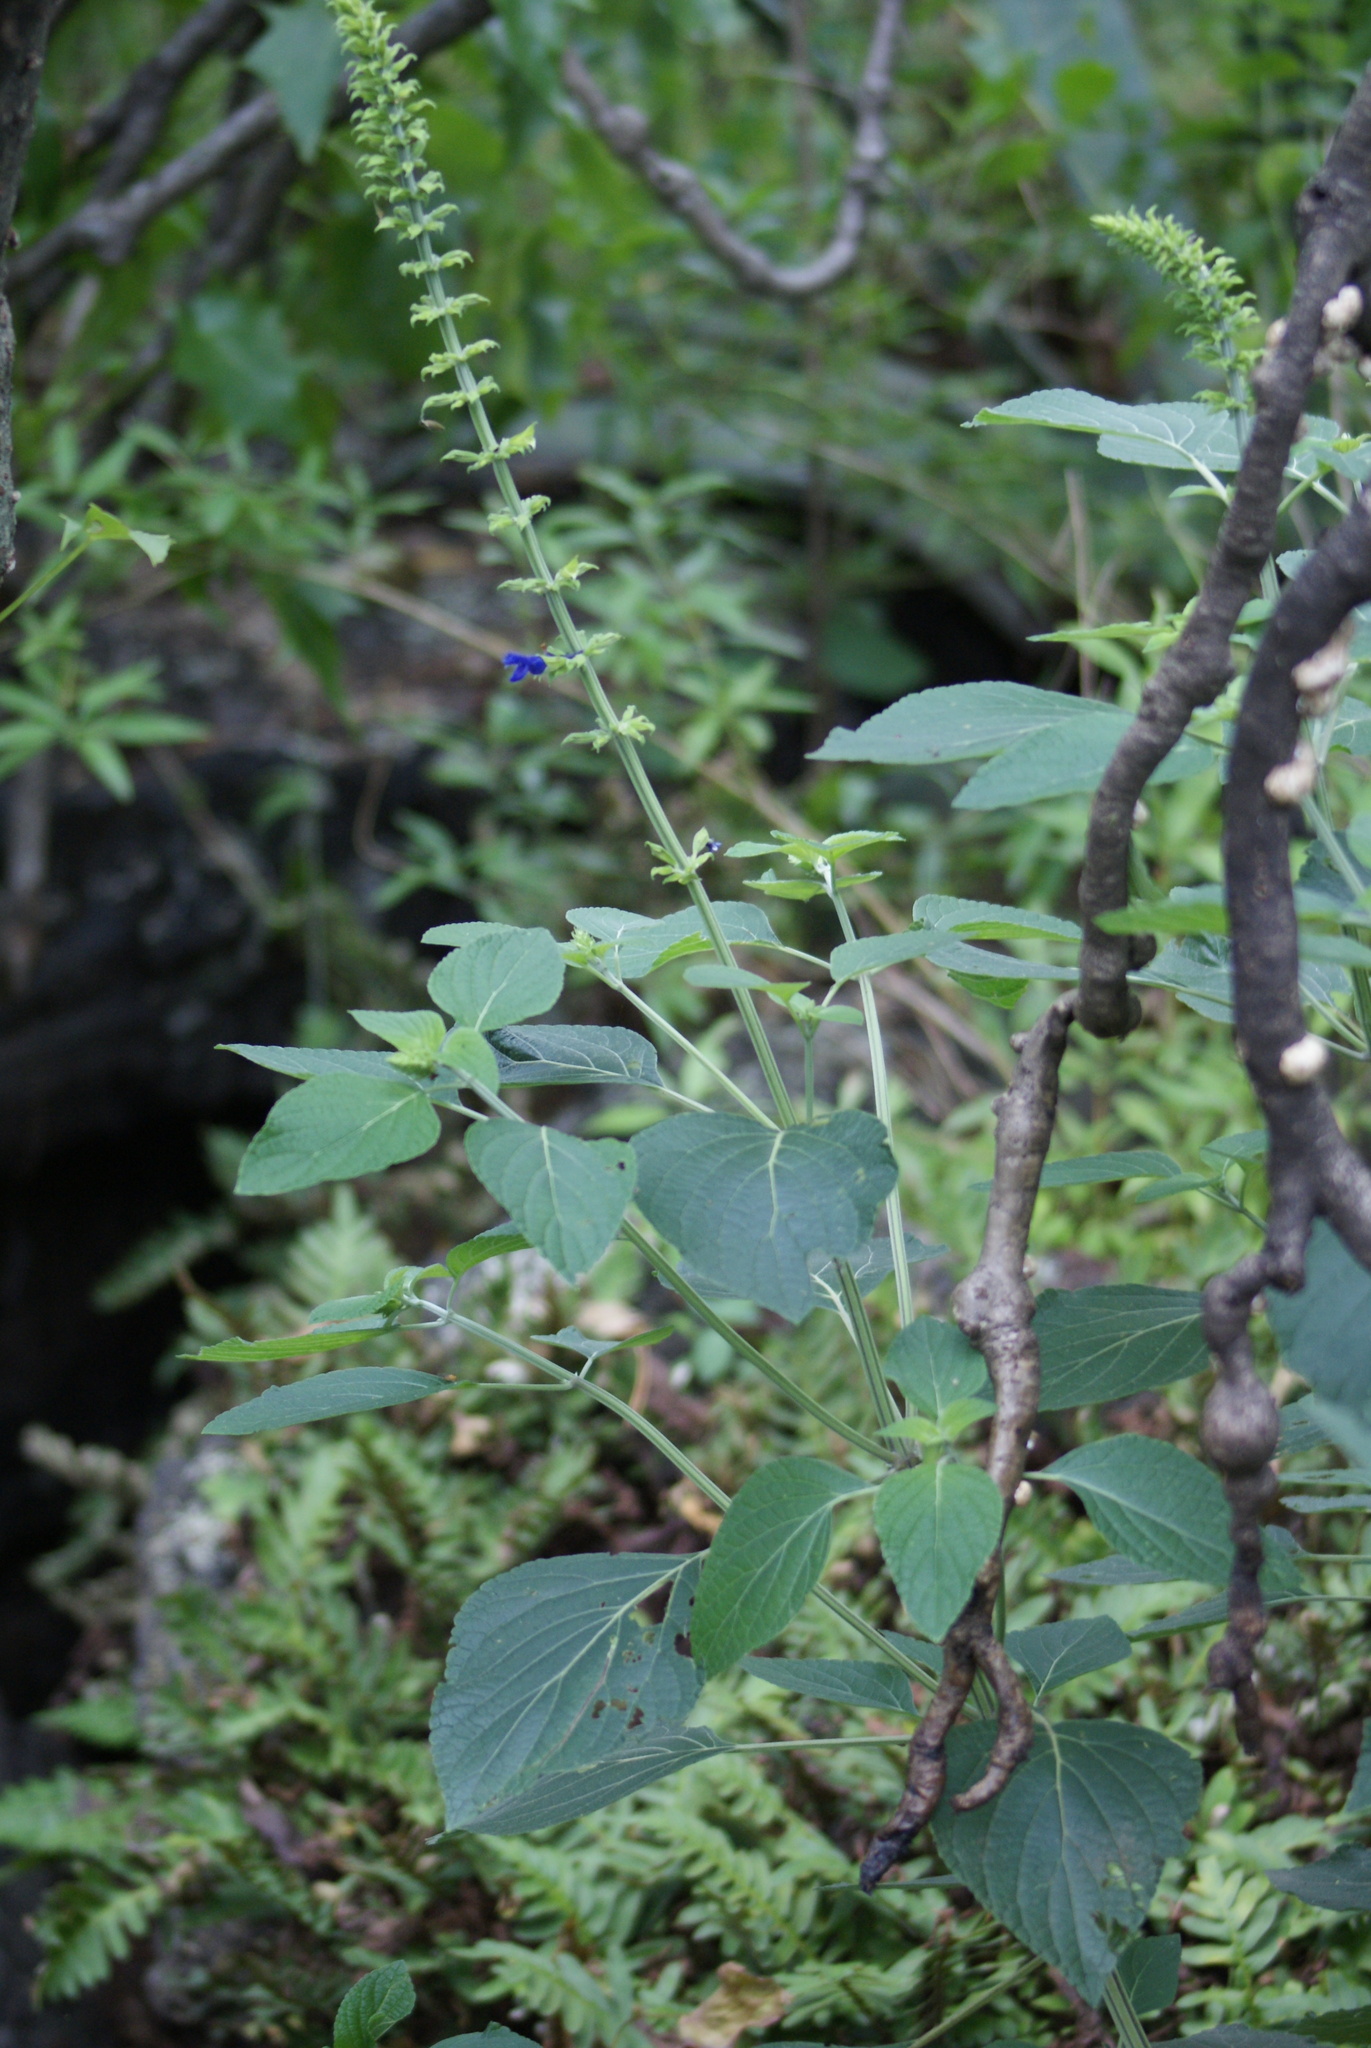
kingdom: Plantae
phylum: Tracheophyta
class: Magnoliopsida
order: Lamiales
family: Lamiaceae
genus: Salvia
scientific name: Salvia mexicana
